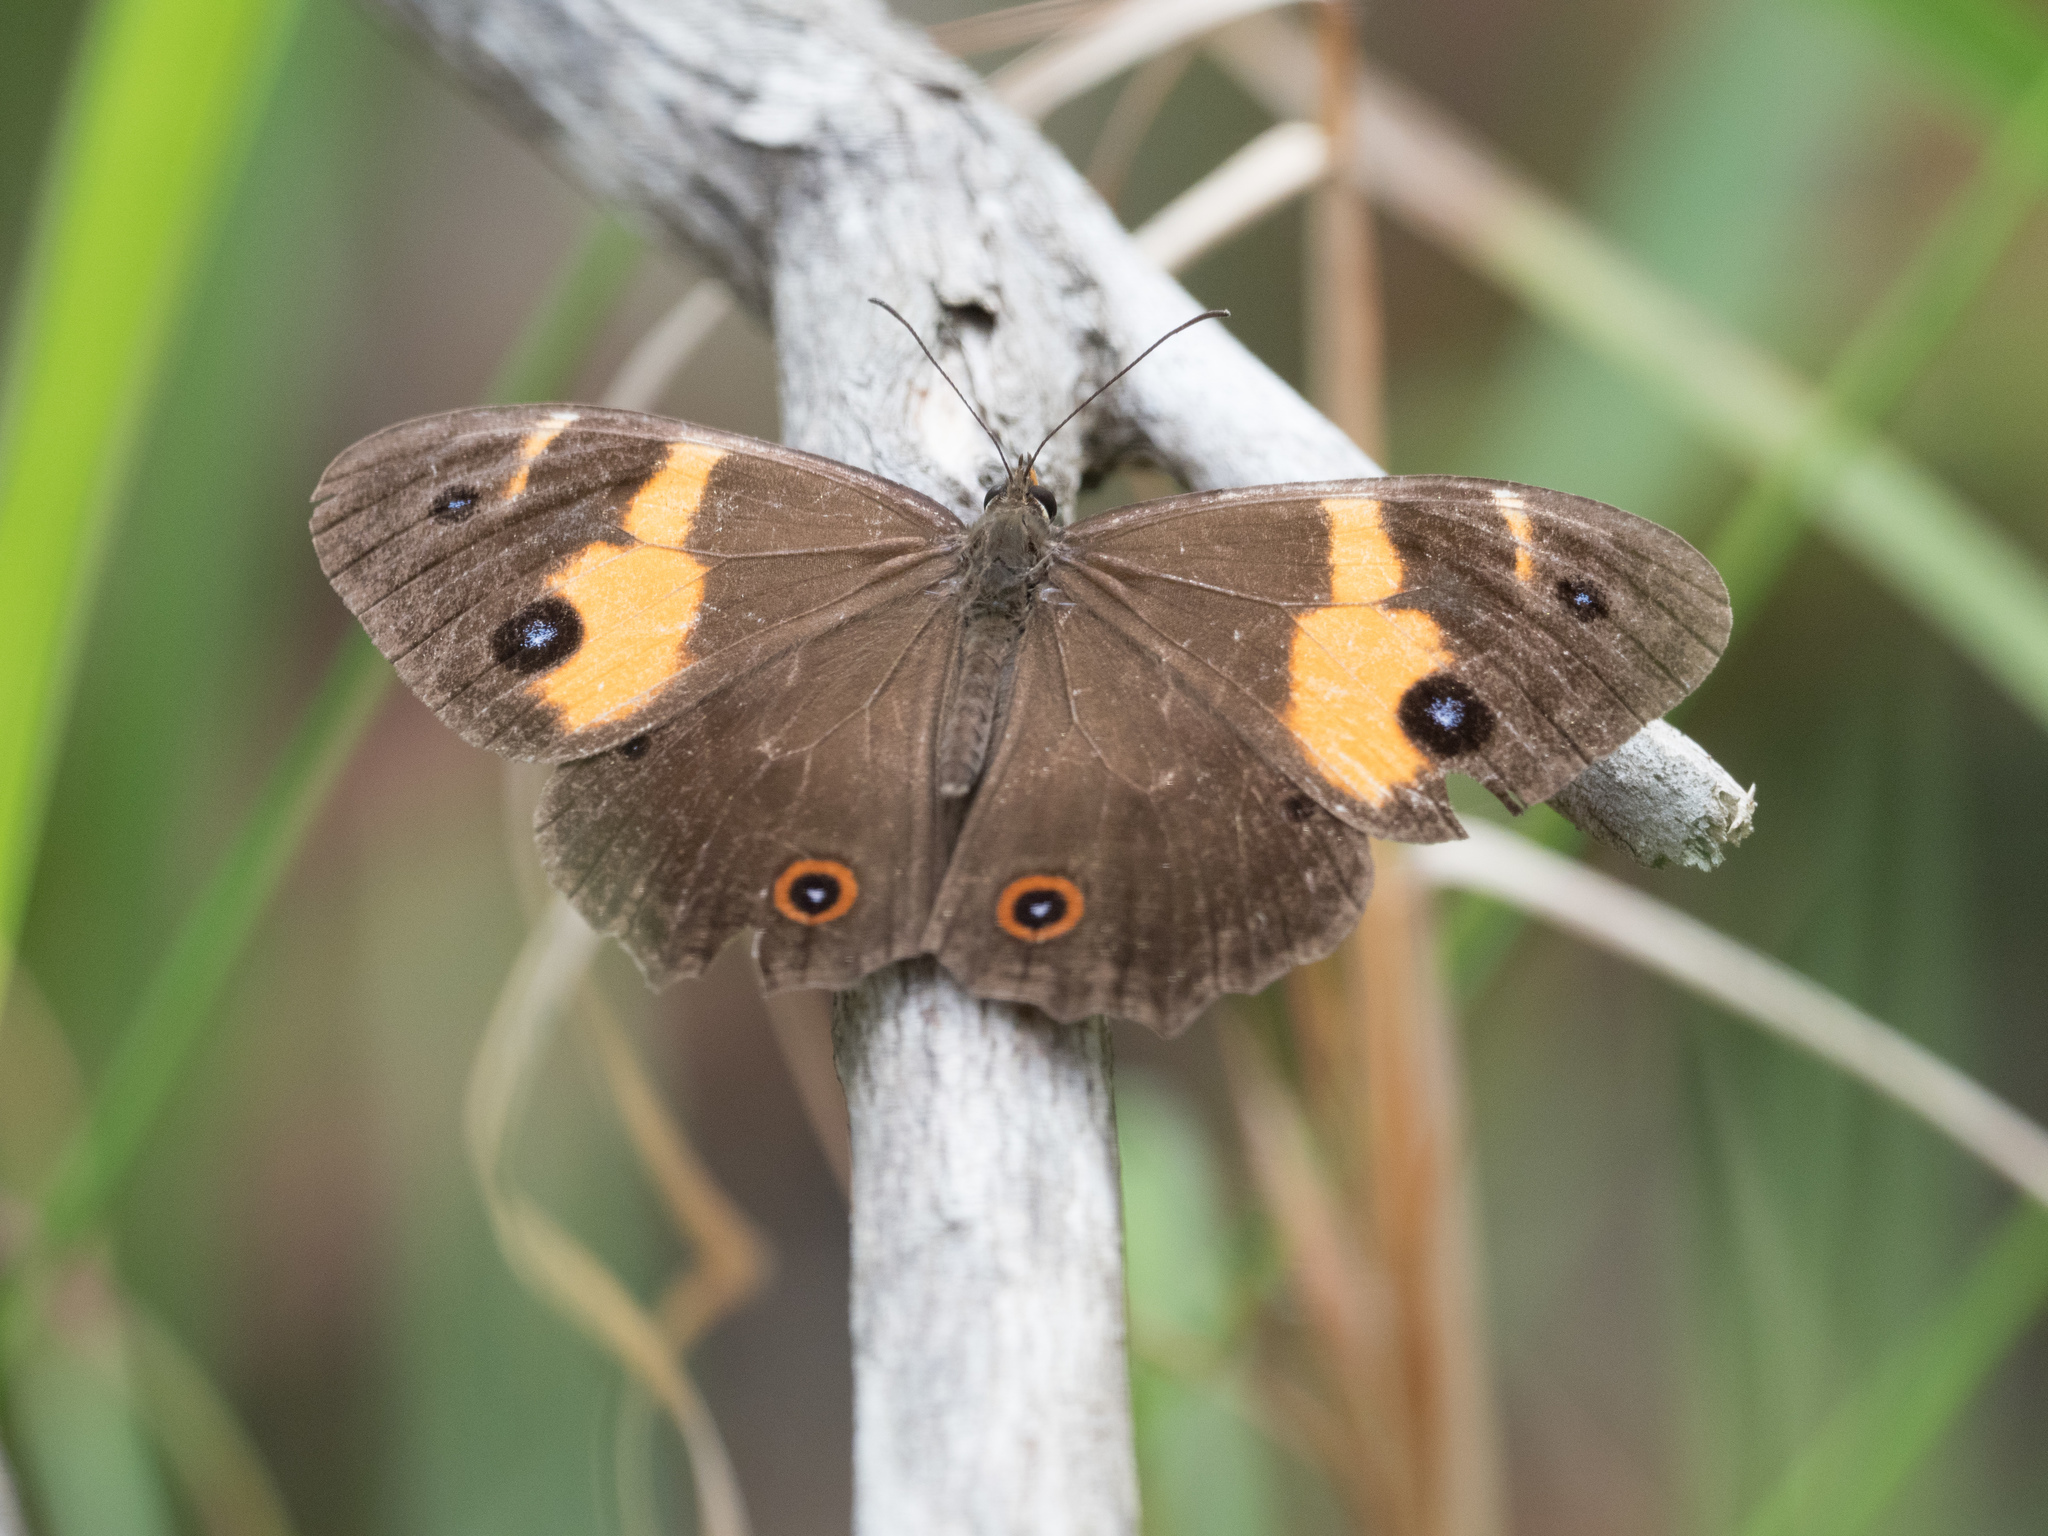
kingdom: Animalia
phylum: Arthropoda
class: Insecta
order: Lepidoptera
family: Nymphalidae
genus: Tisiphone
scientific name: Tisiphone abeona
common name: Swordgrass brown
